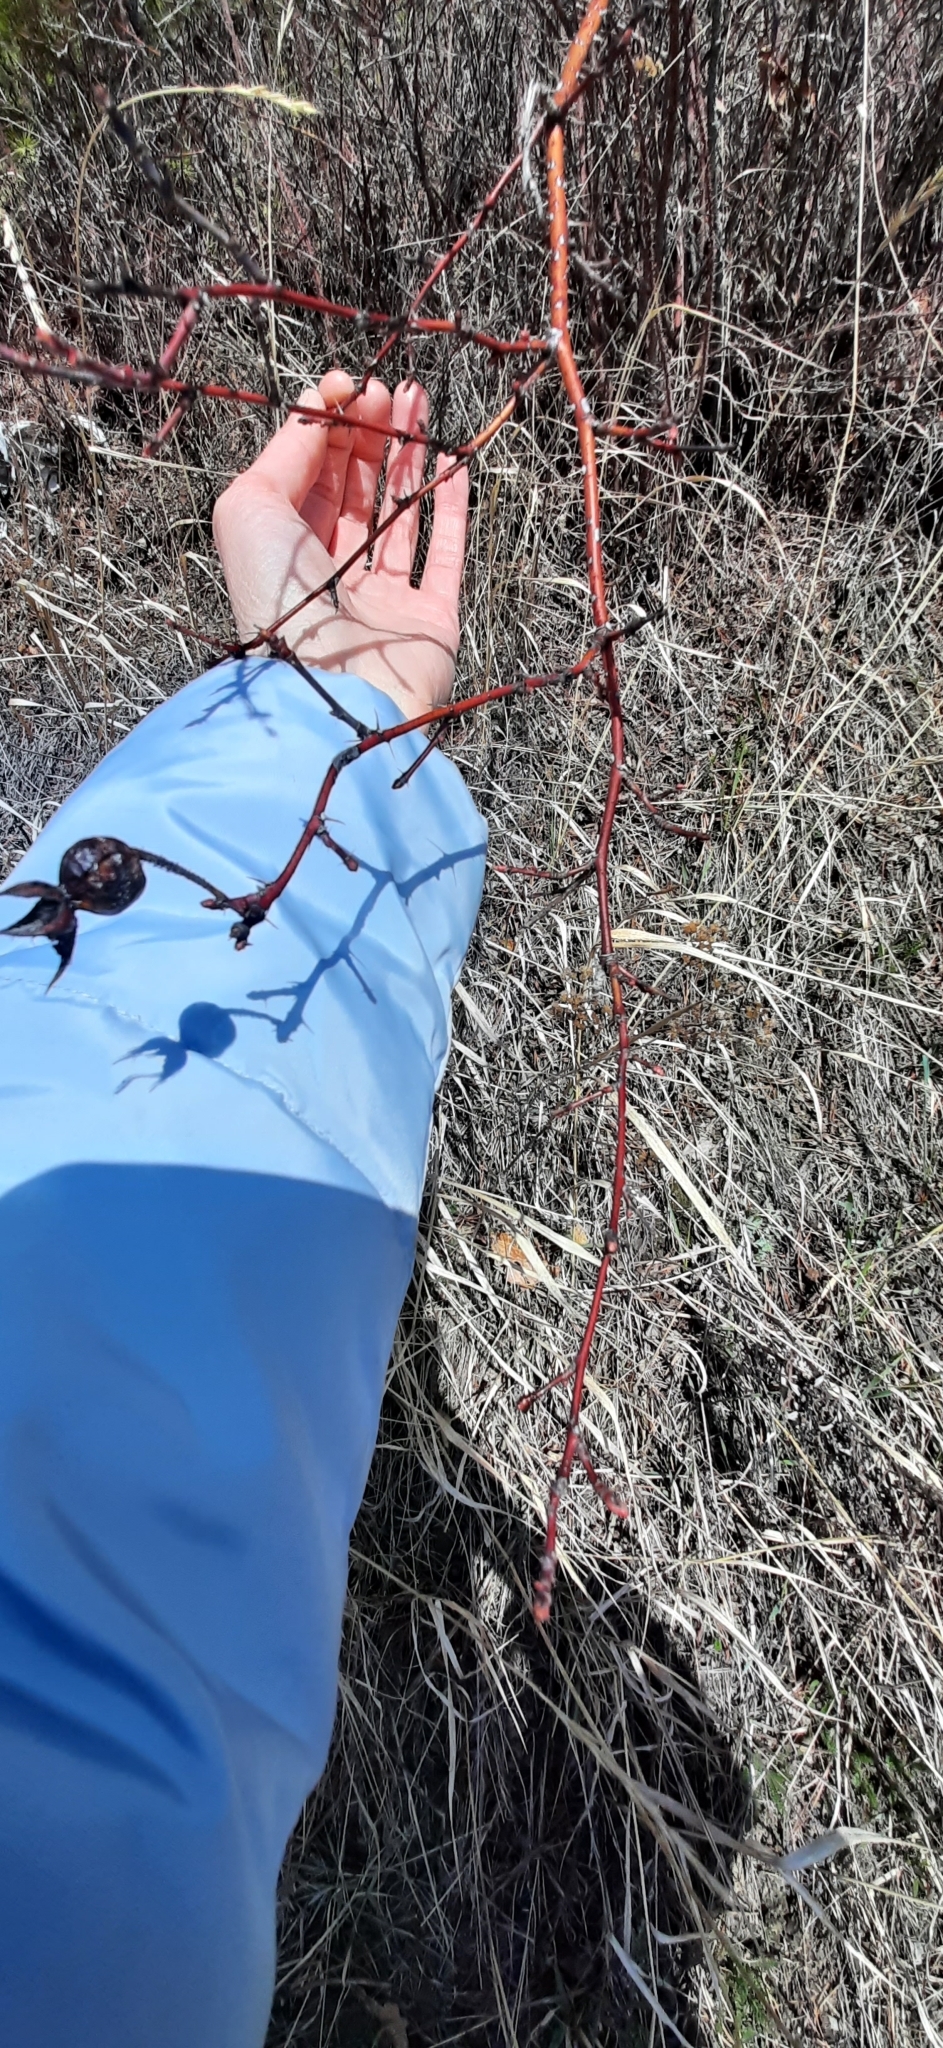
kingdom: Plantae
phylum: Tracheophyta
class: Magnoliopsida
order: Rosales
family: Rosaceae
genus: Rosa
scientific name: Rosa
